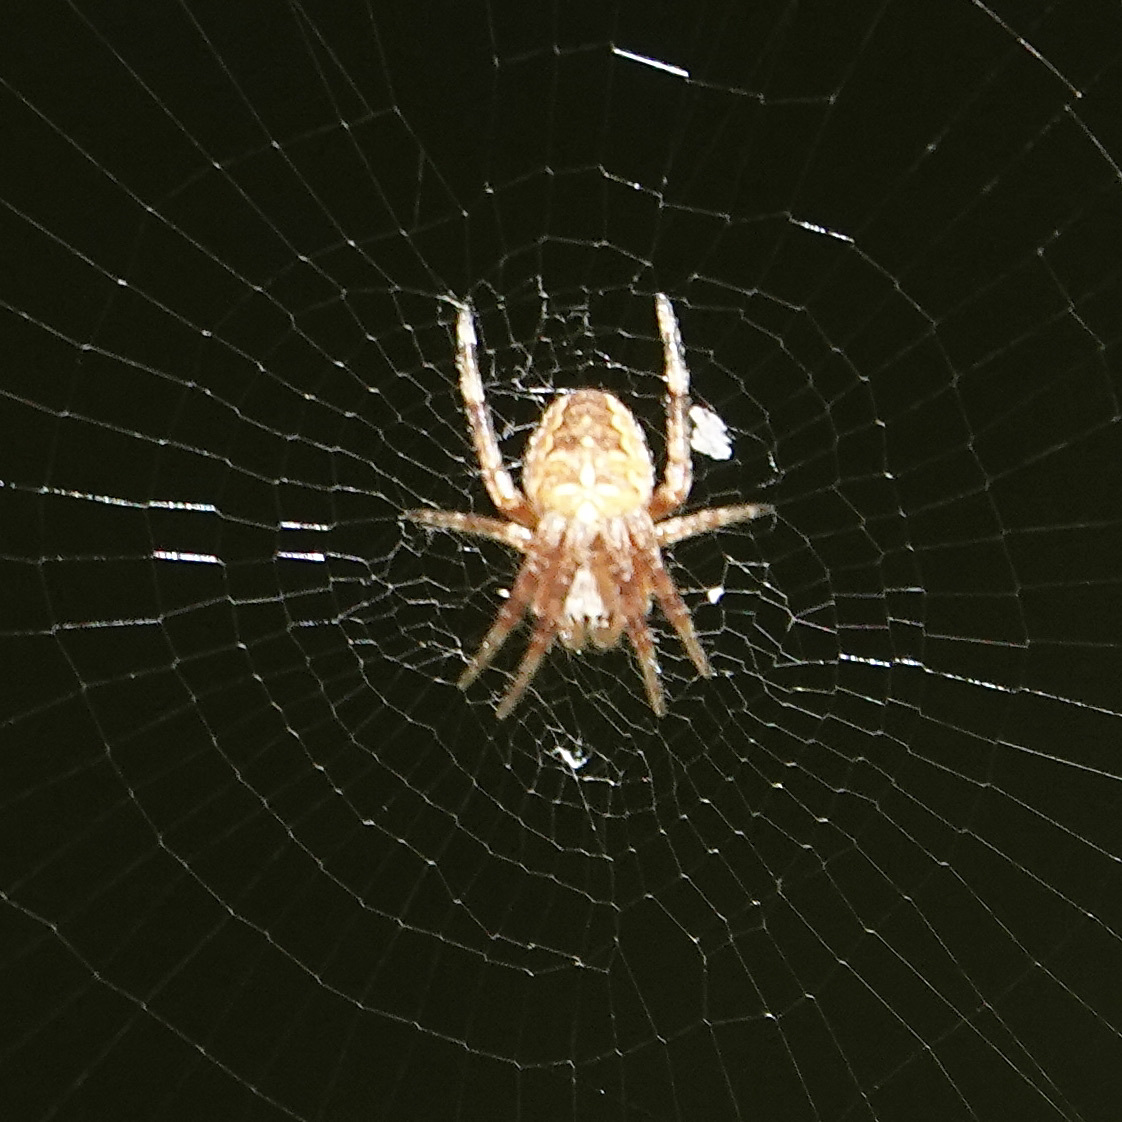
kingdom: Animalia
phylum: Arthropoda
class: Arachnida
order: Araneae
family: Araneidae
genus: Araneus
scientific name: Araneus diadematus
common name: Cross orbweaver
